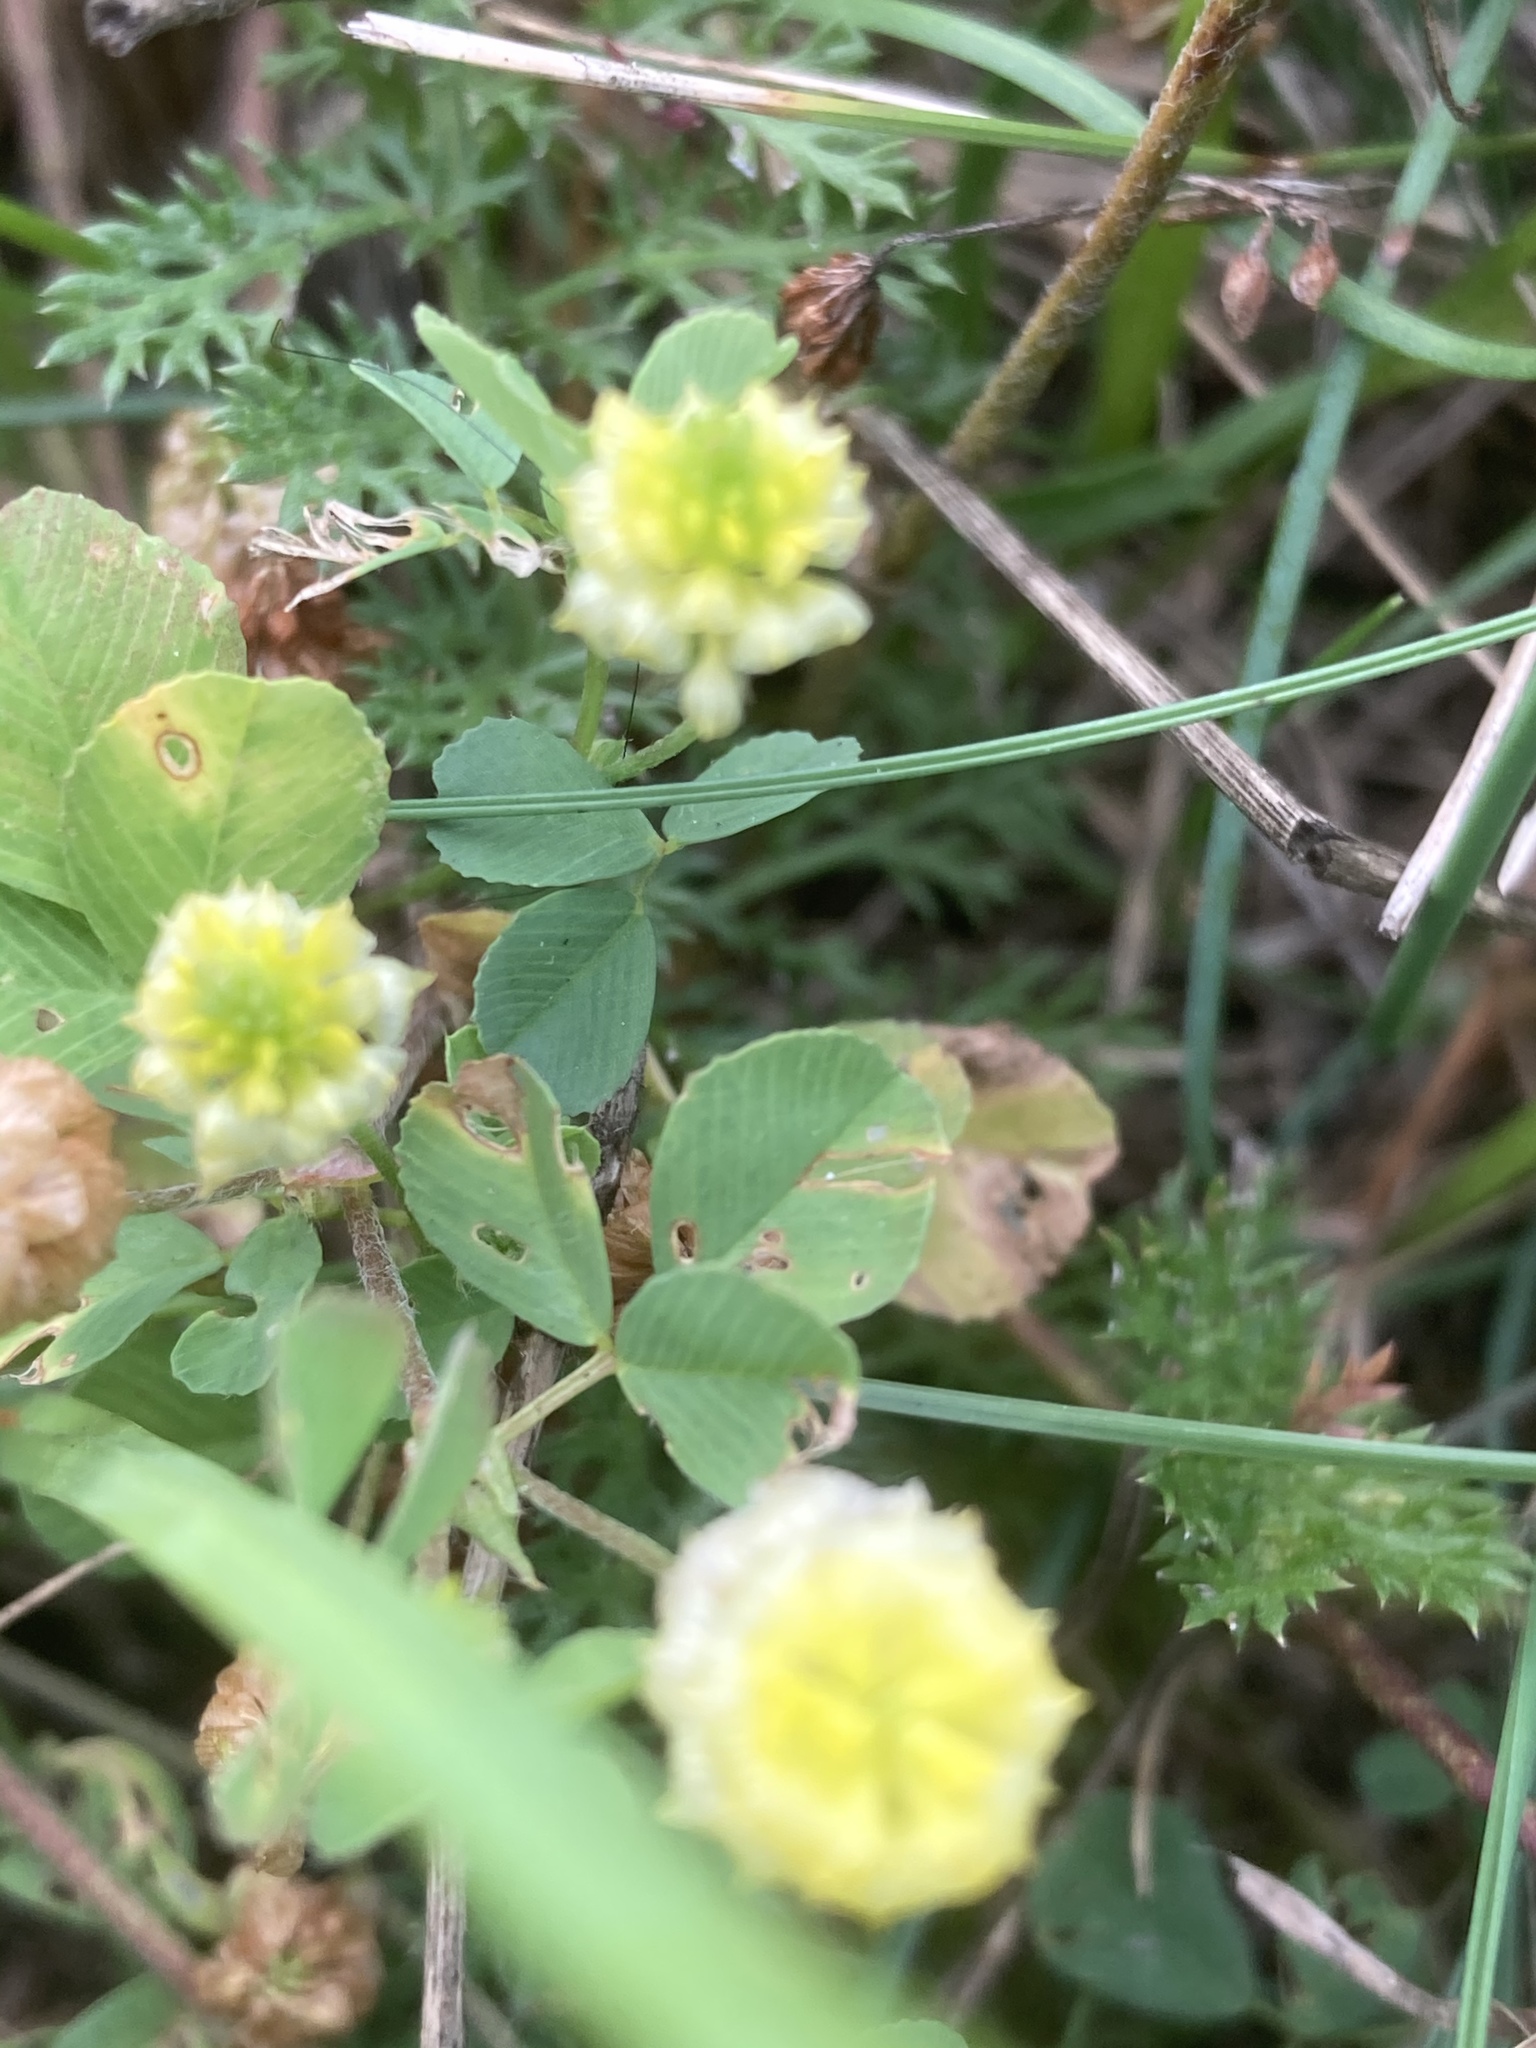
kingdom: Plantae
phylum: Tracheophyta
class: Magnoliopsida
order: Fabales
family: Fabaceae
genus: Trifolium
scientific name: Trifolium campestre
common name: Field clover
